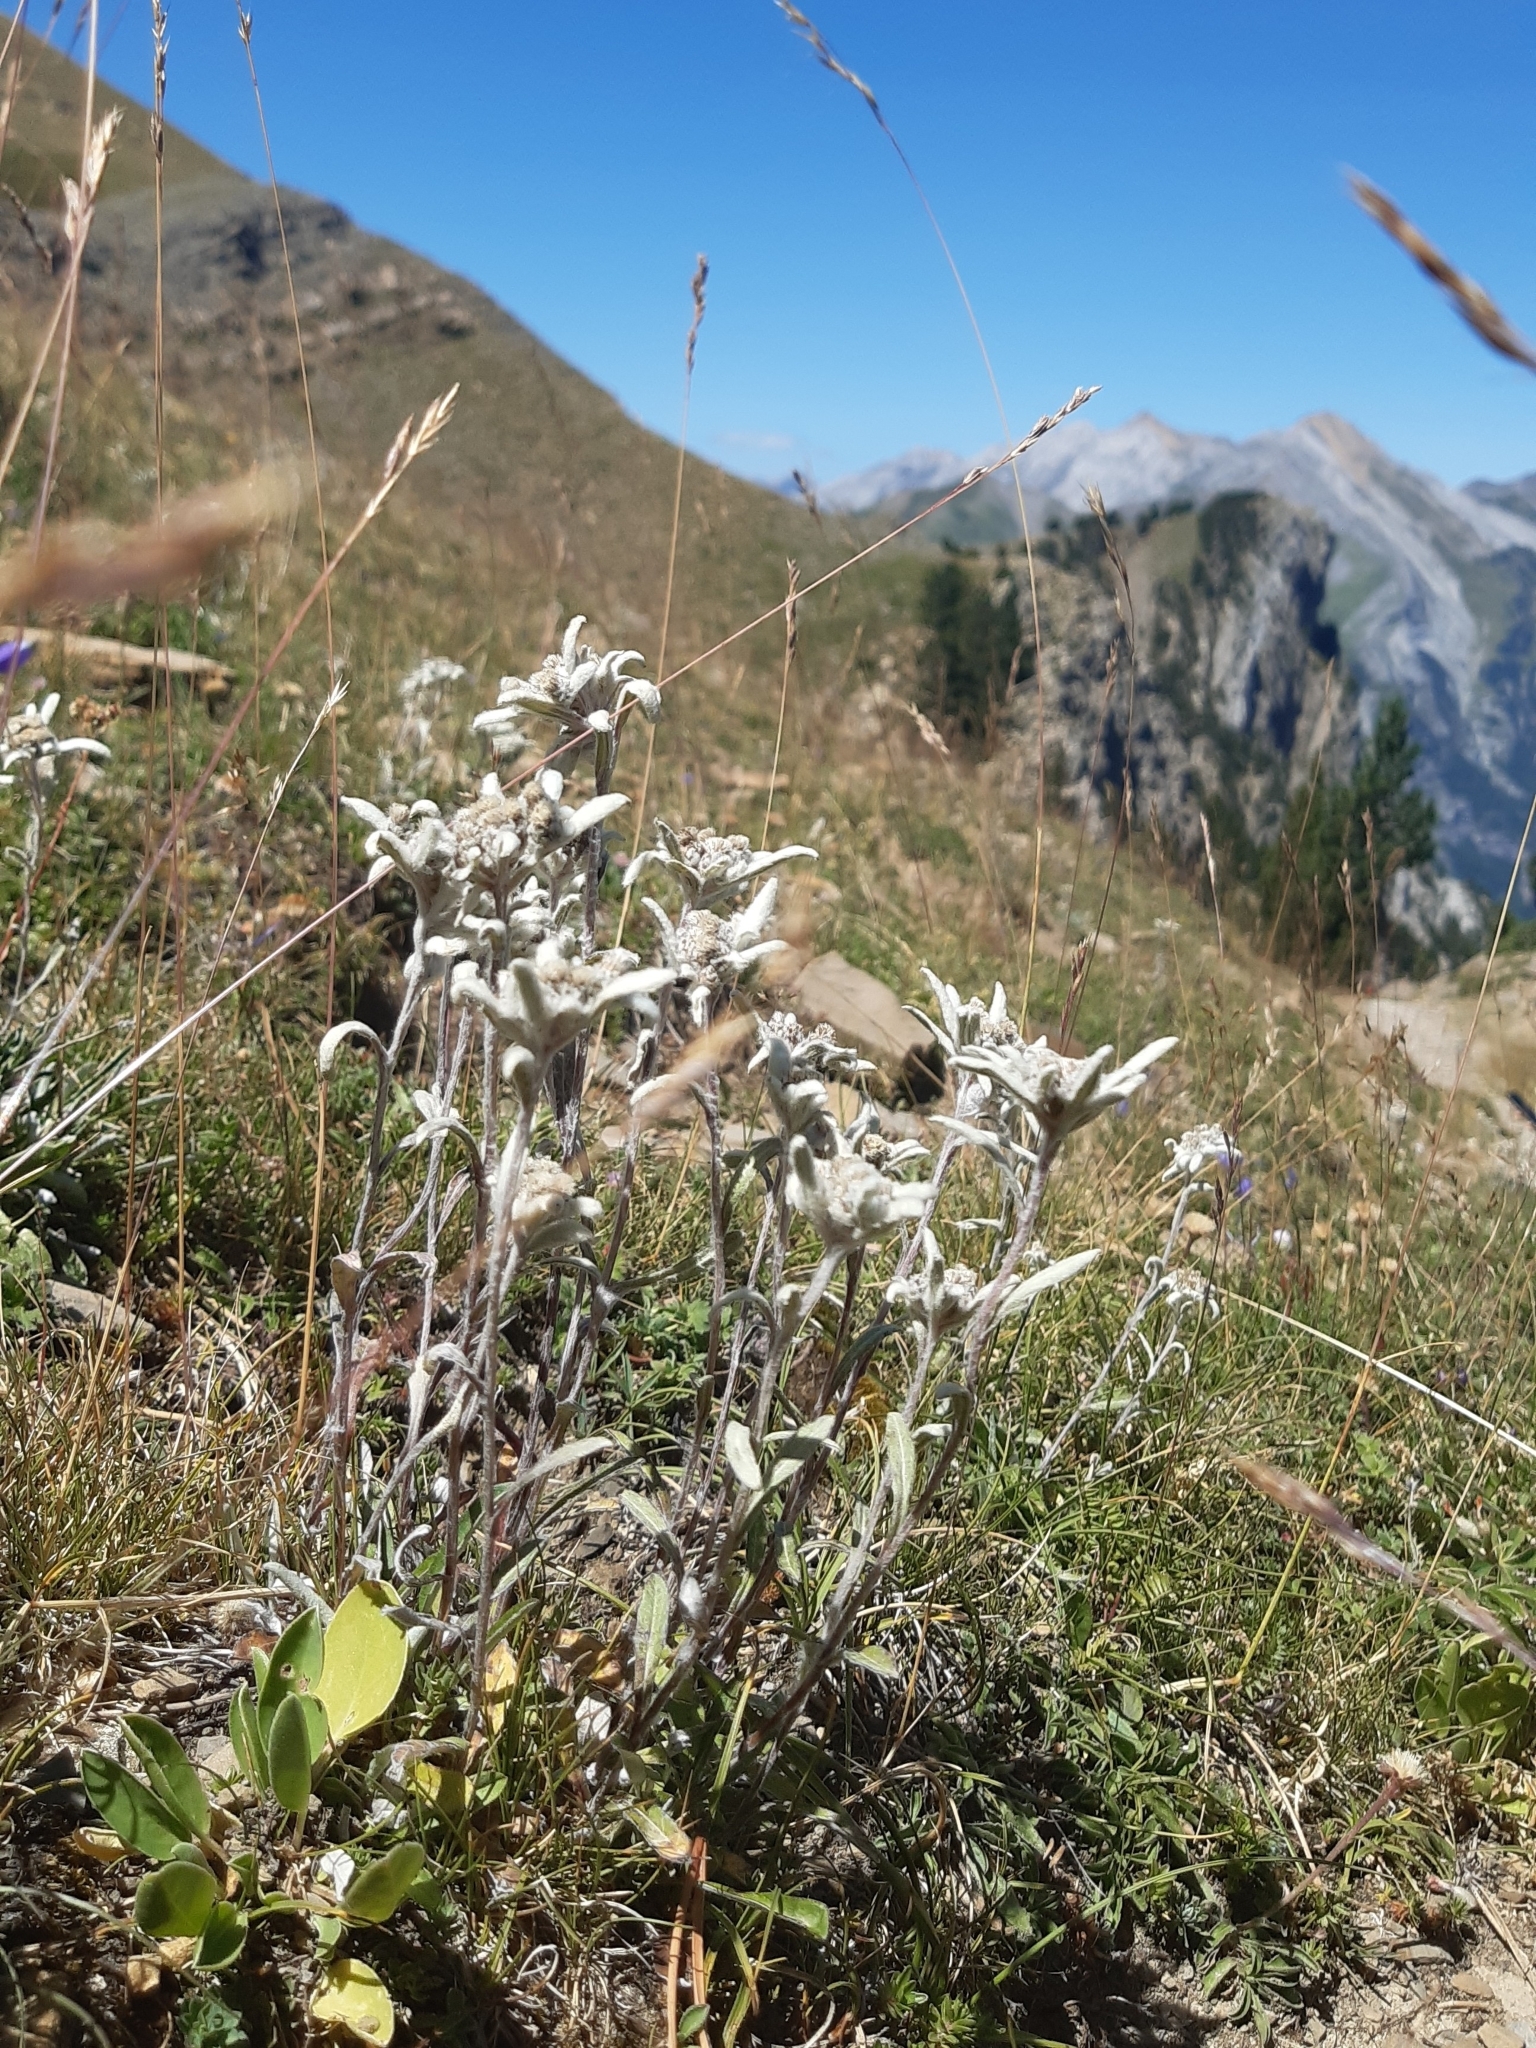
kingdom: Plantae
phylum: Tracheophyta
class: Magnoliopsida
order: Asterales
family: Asteraceae
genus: Leontopodium
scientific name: Leontopodium nivale
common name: Edelweiss
